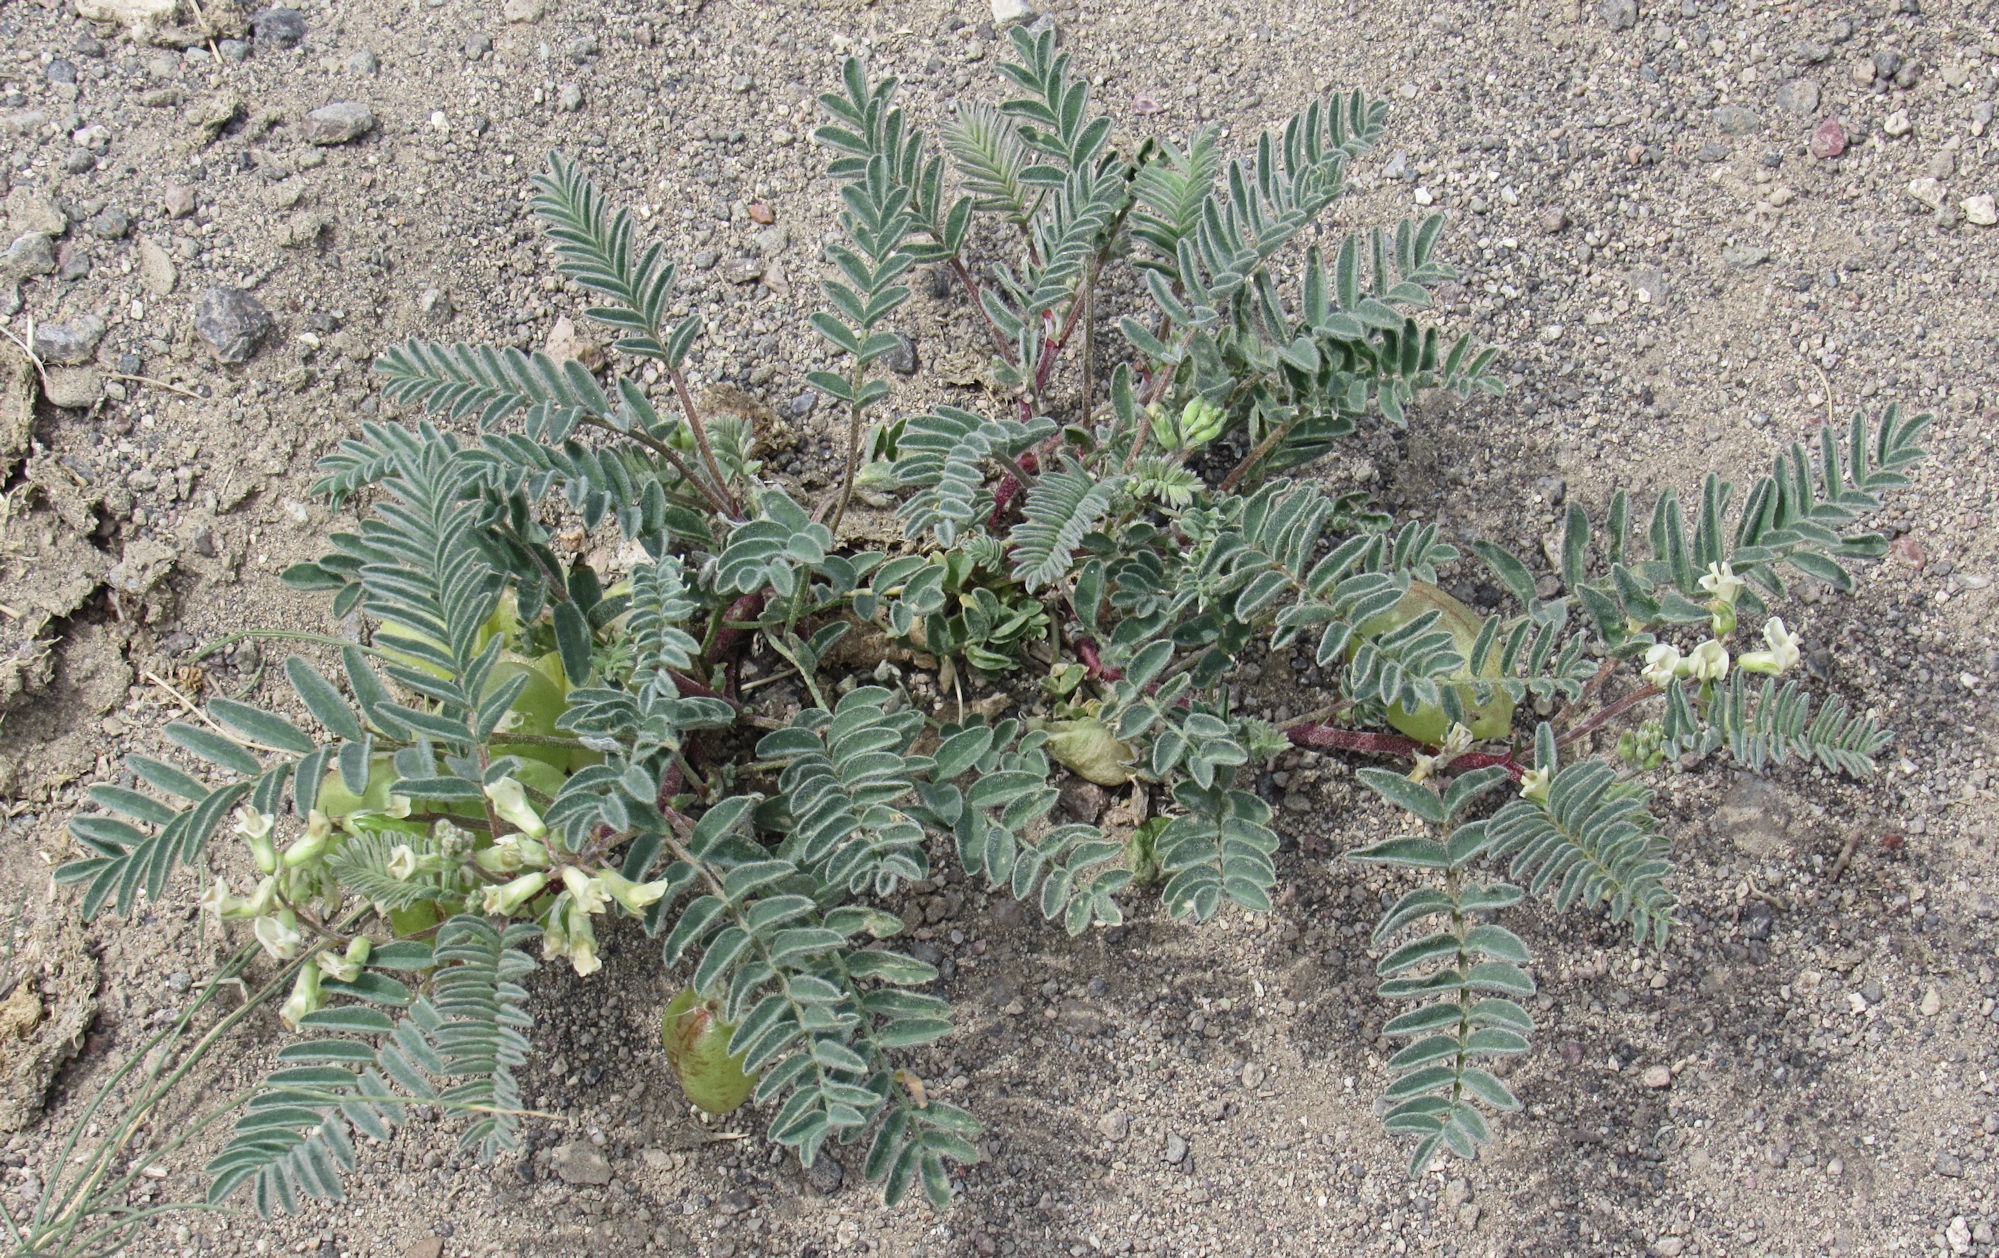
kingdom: Plantae
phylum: Tracheophyta
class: Magnoliopsida
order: Fabales
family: Fabaceae
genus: Astragalus
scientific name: Astragalus aquilonius
